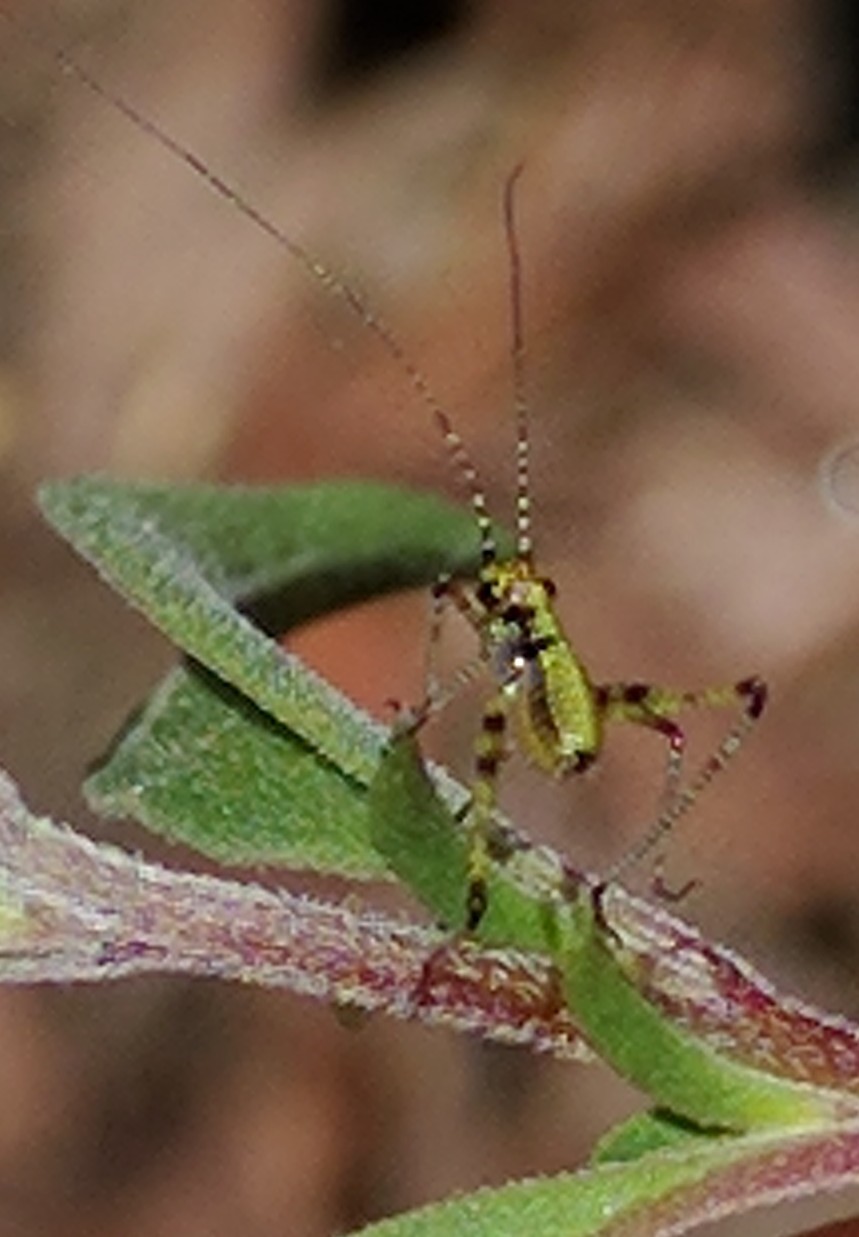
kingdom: Animalia
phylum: Arthropoda
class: Insecta
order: Orthoptera
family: Tettigoniidae
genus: Phaneroptera
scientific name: Phaneroptera nana
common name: Southern sickle bush-cricket
